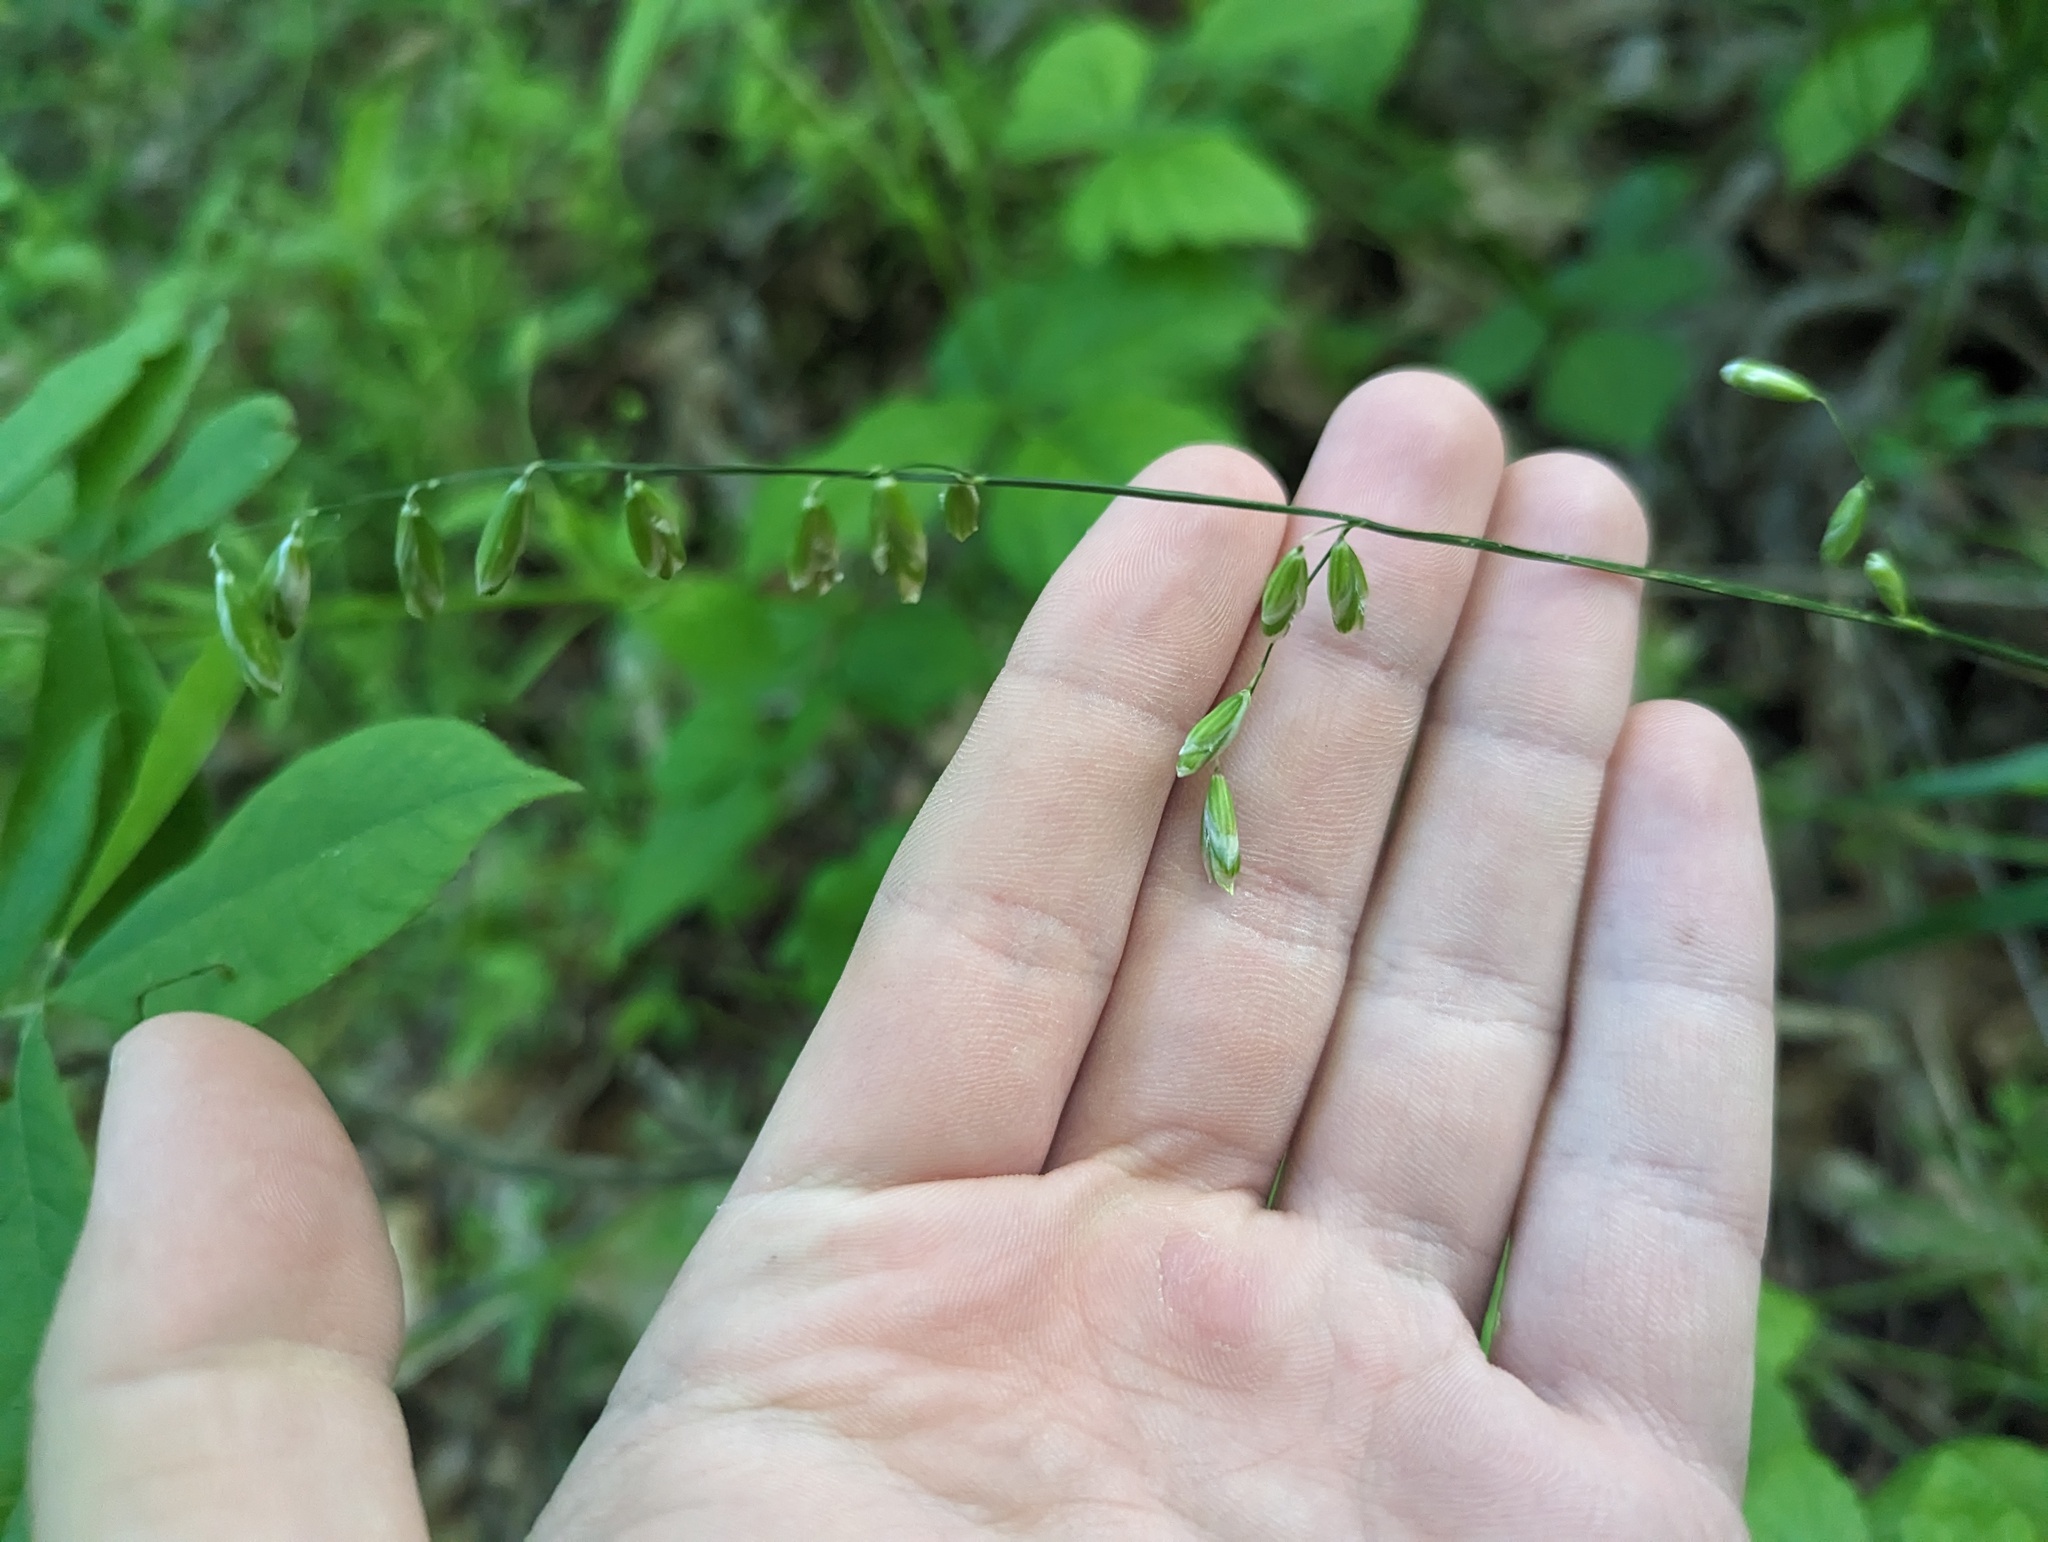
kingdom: Plantae
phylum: Tracheophyta
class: Liliopsida
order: Poales
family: Poaceae
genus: Melica
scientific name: Melica mutica
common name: Two-flower melic
